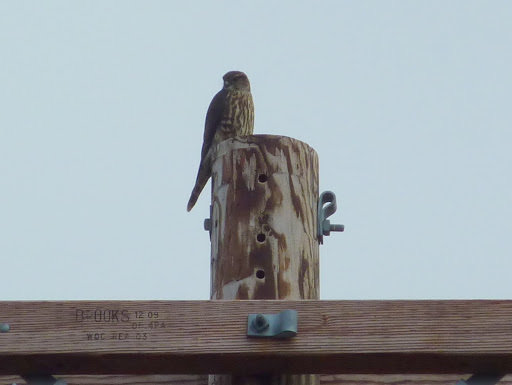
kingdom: Animalia
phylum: Chordata
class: Aves
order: Falconiformes
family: Falconidae
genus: Falco
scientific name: Falco columbarius
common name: Merlin
